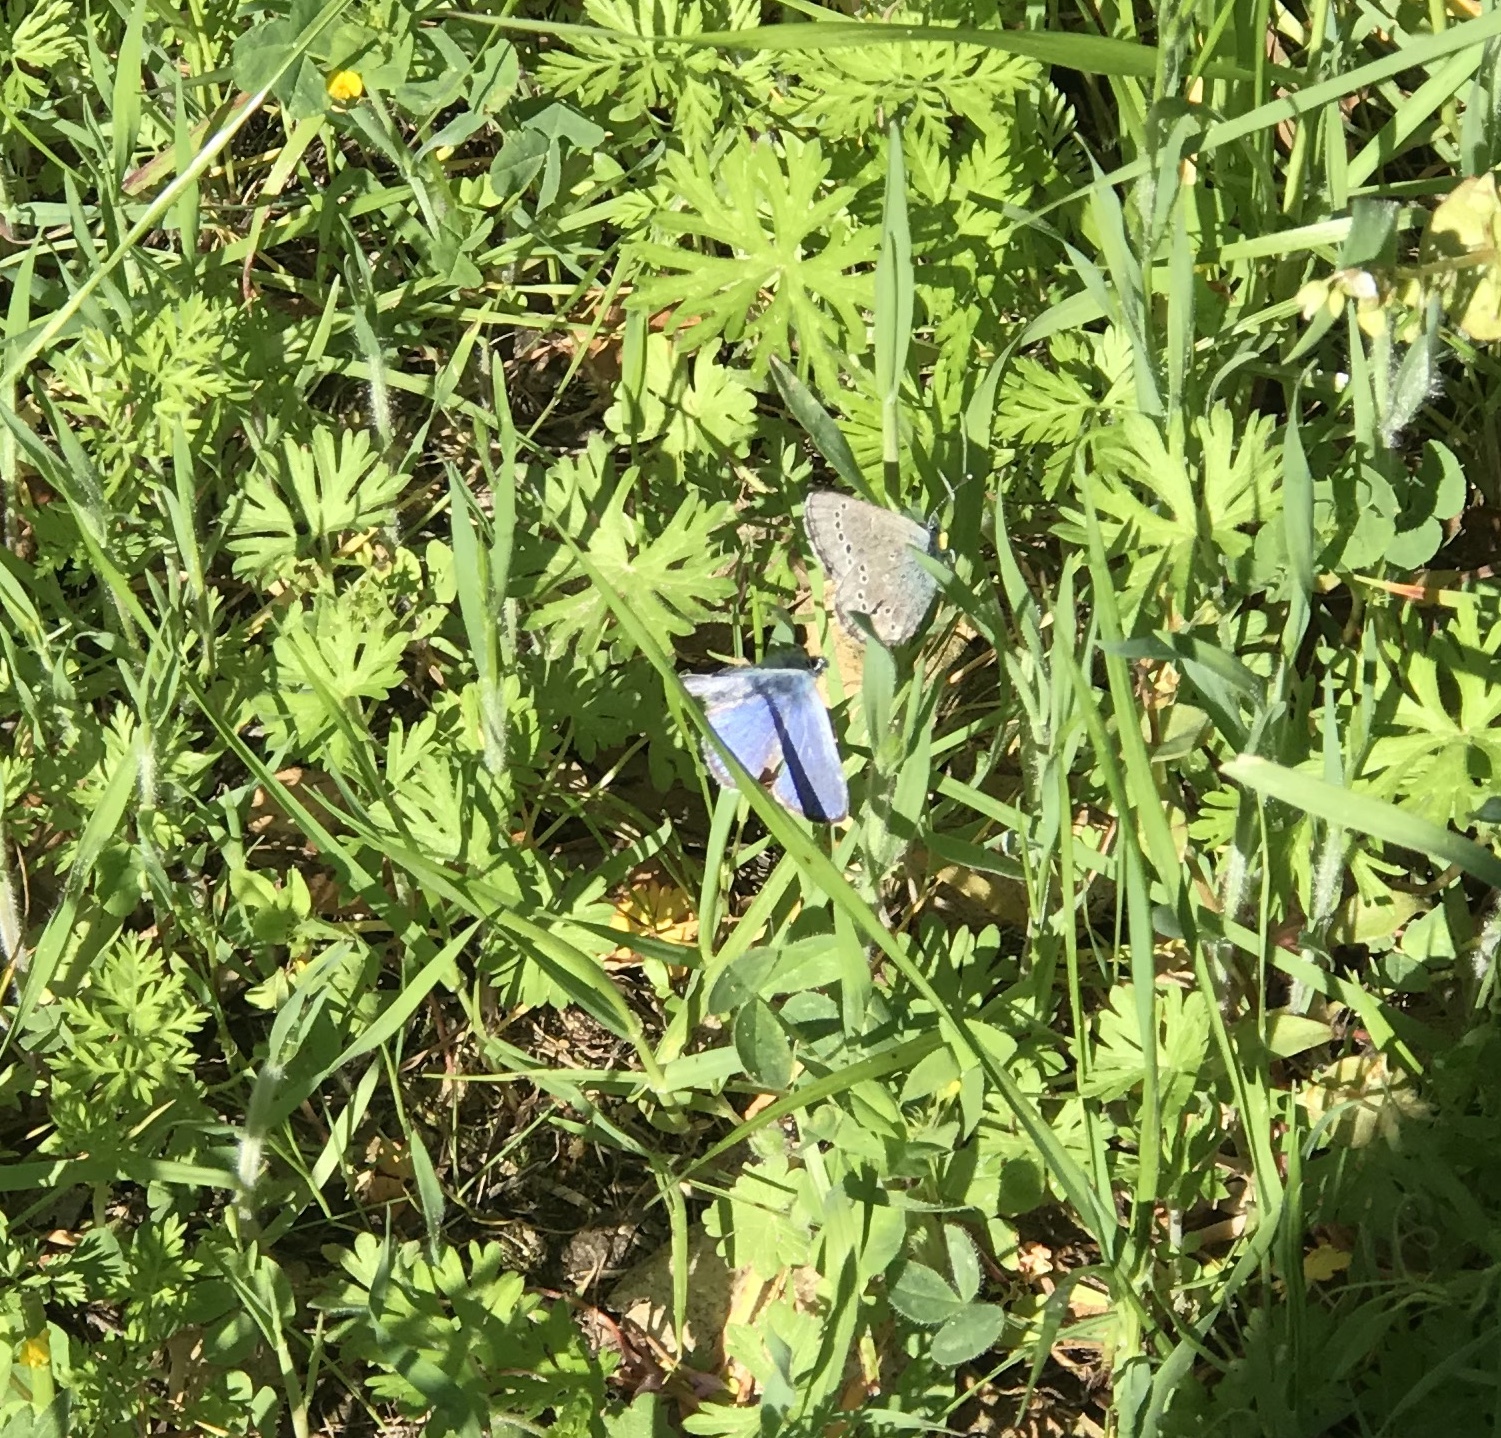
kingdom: Animalia
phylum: Arthropoda
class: Insecta
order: Lepidoptera
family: Lycaenidae
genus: Glaucopsyche
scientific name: Glaucopsyche lygdamus
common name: Silvery blue
